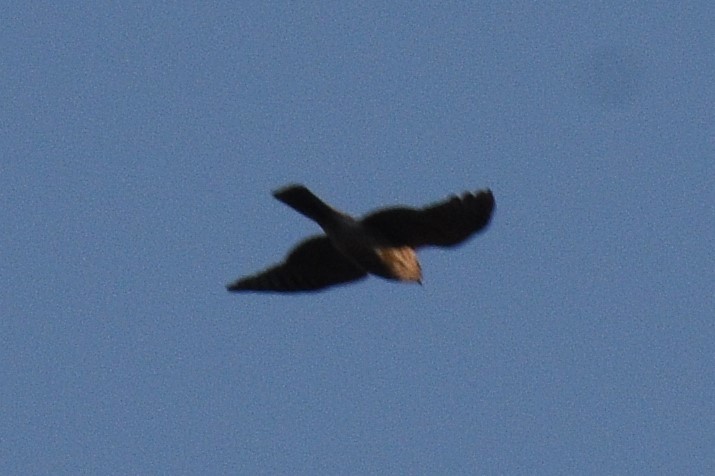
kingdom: Animalia
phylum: Chordata
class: Aves
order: Accipitriformes
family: Accipitridae
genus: Accipiter
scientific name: Accipiter striatus
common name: Sharp-shinned hawk
